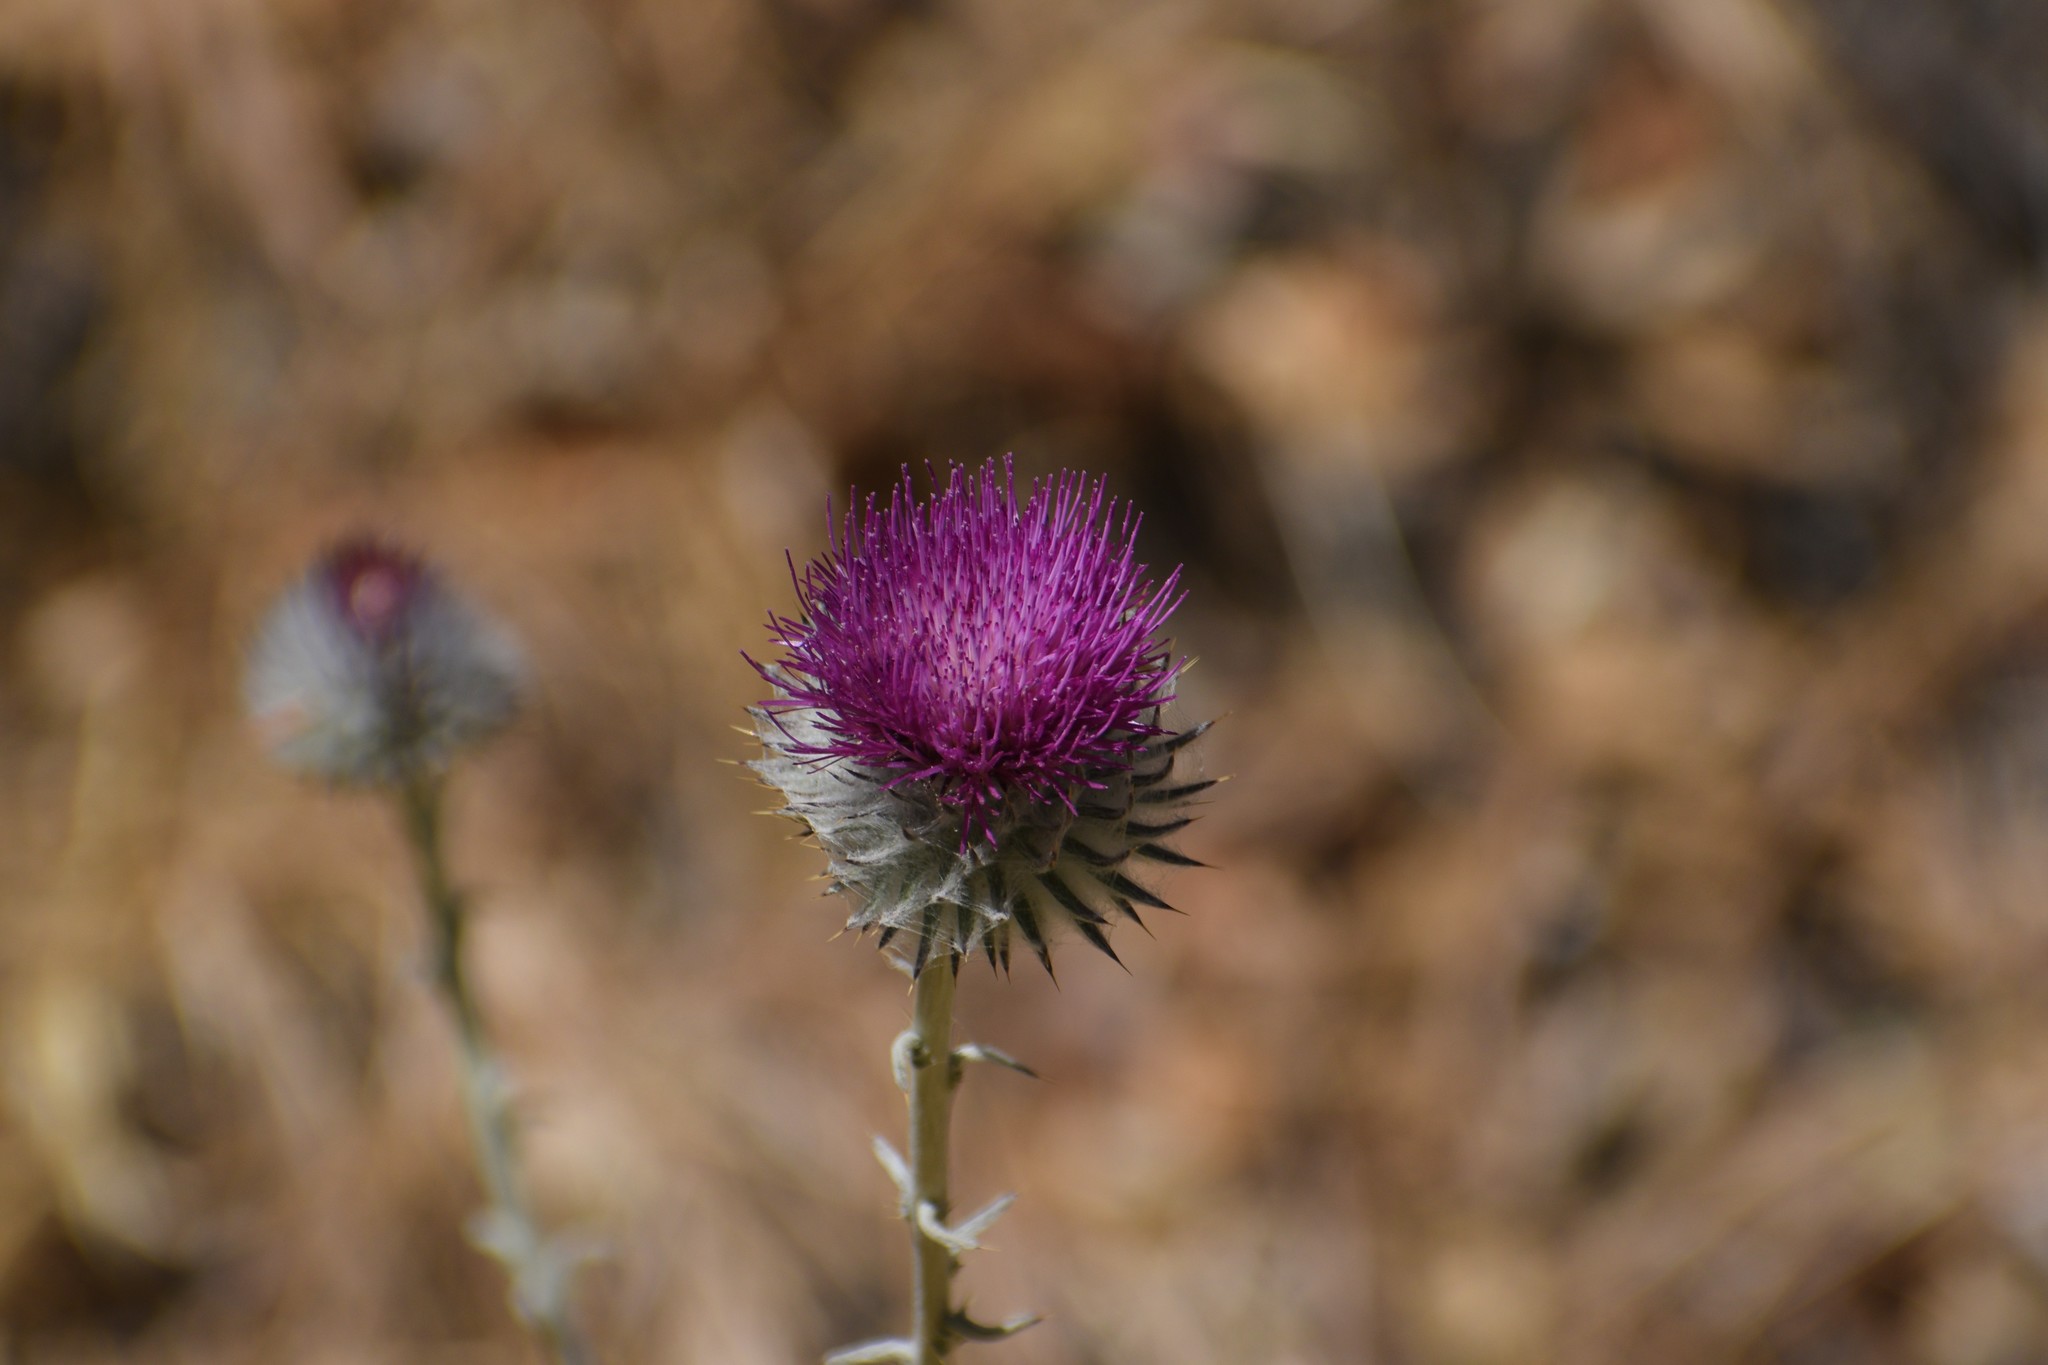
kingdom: Plantae
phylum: Tracheophyta
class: Magnoliopsida
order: Asterales
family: Asteraceae
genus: Cirsium
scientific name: Cirsium occidentale
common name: Western thistle
